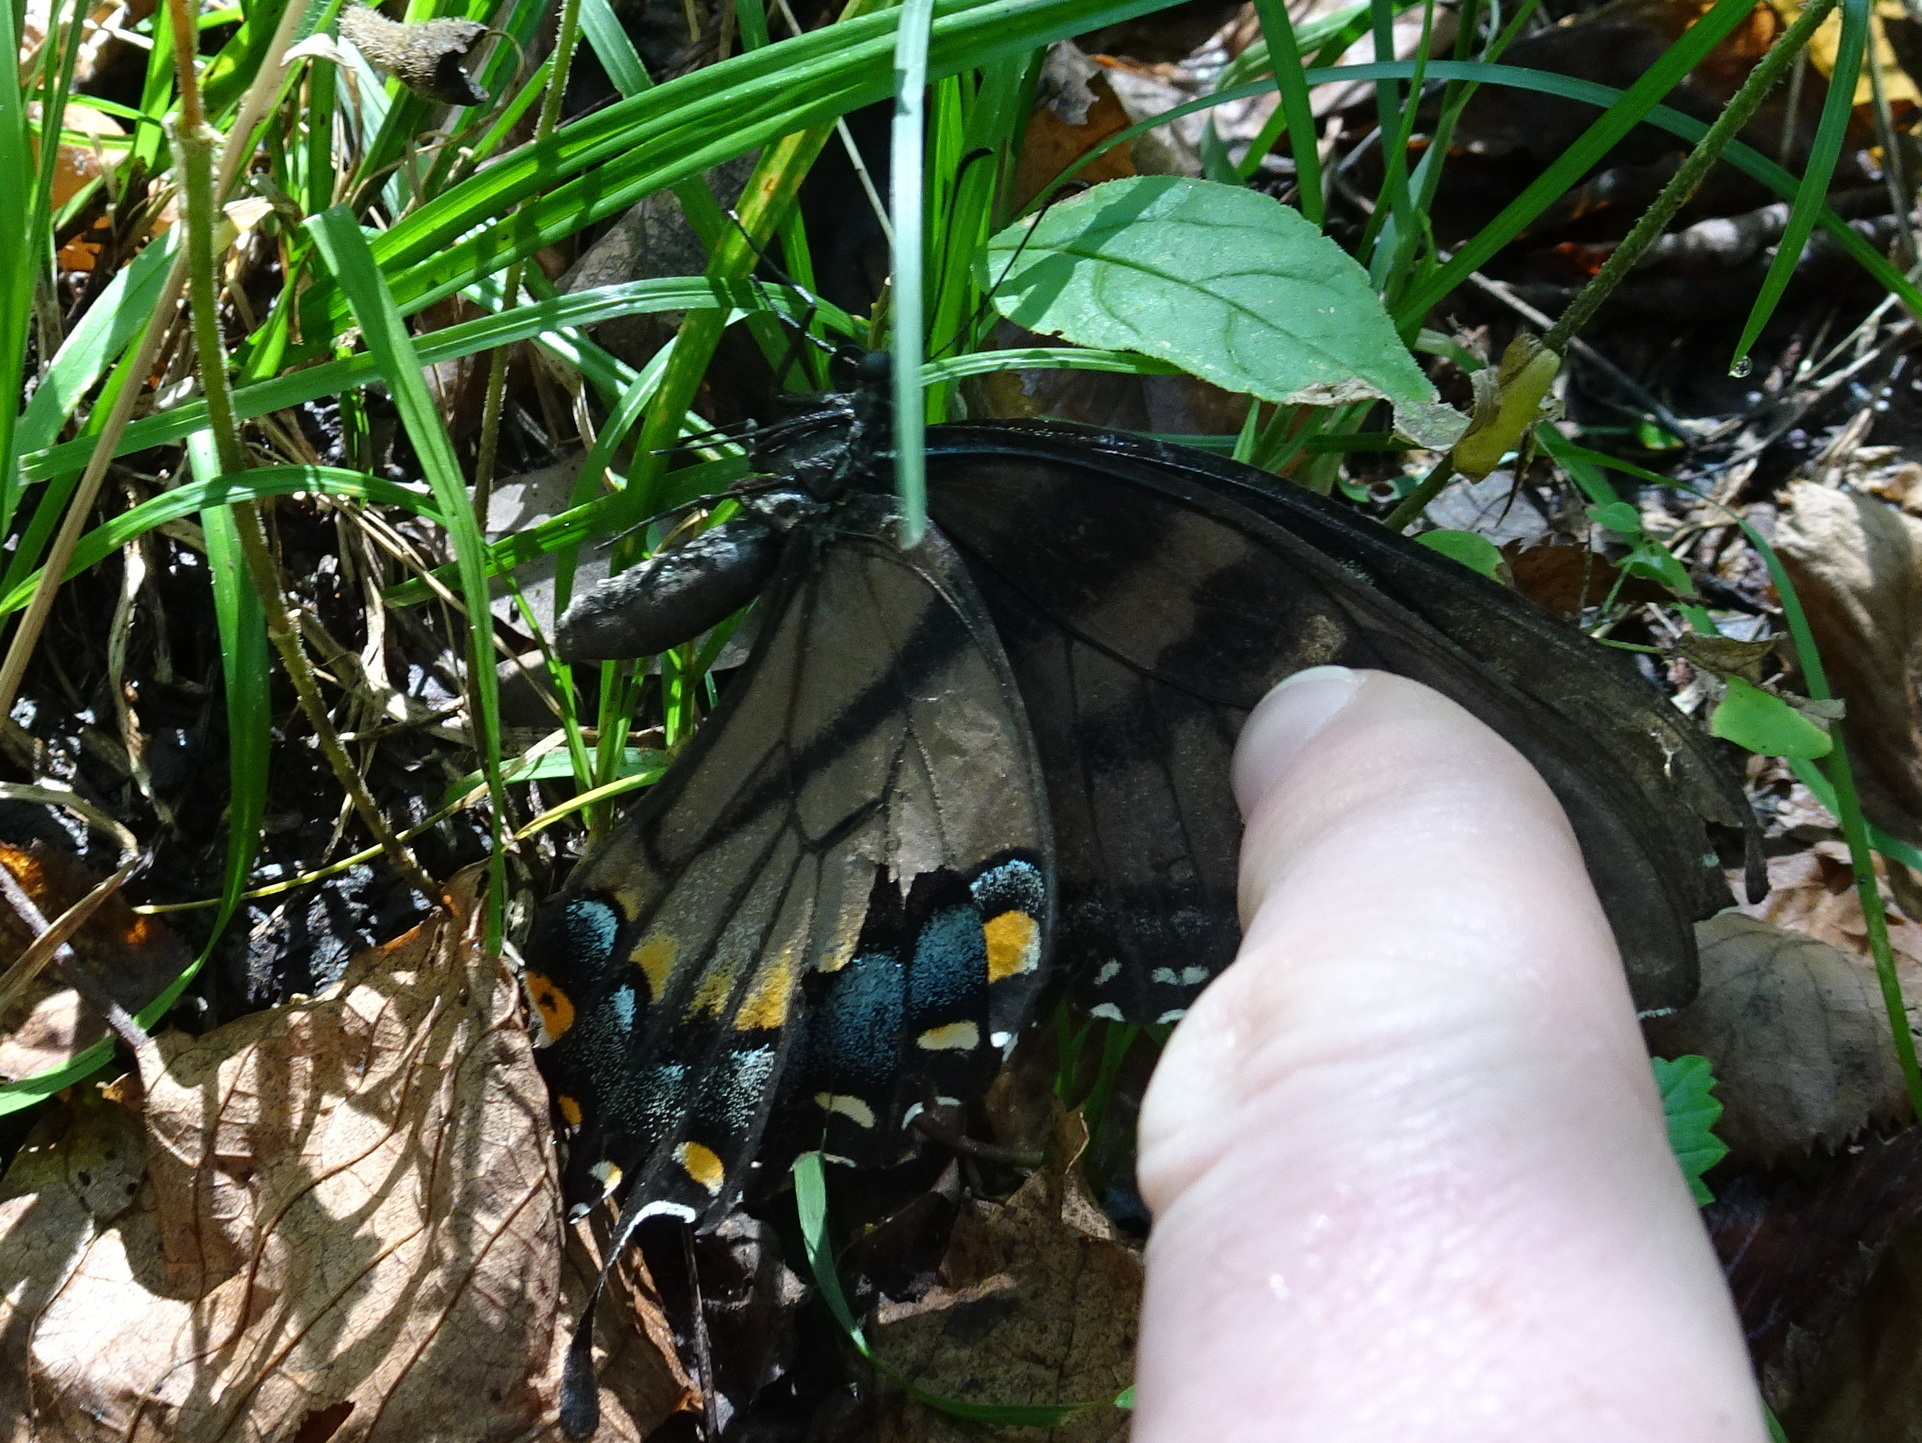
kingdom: Animalia
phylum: Arthropoda
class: Insecta
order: Lepidoptera
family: Papilionidae
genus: Papilio
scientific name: Papilio glaucus
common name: Tiger swallowtail
